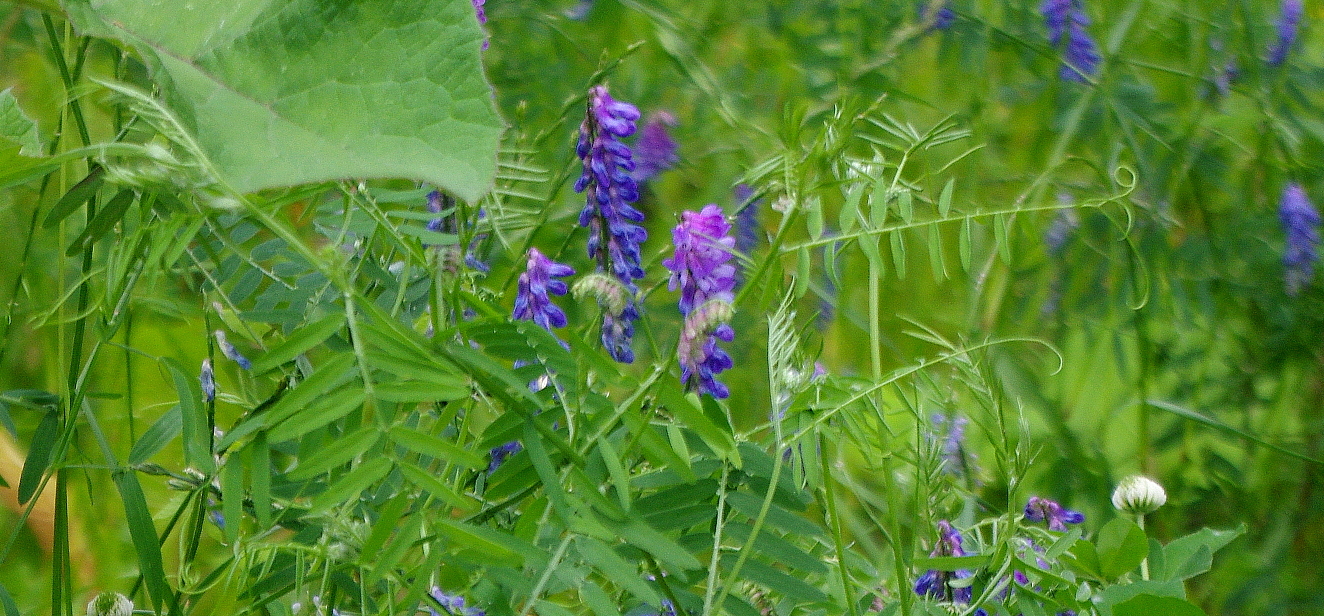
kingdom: Plantae
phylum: Tracheophyta
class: Magnoliopsida
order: Fabales
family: Fabaceae
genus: Vicia
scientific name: Vicia cracca
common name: Bird vetch
